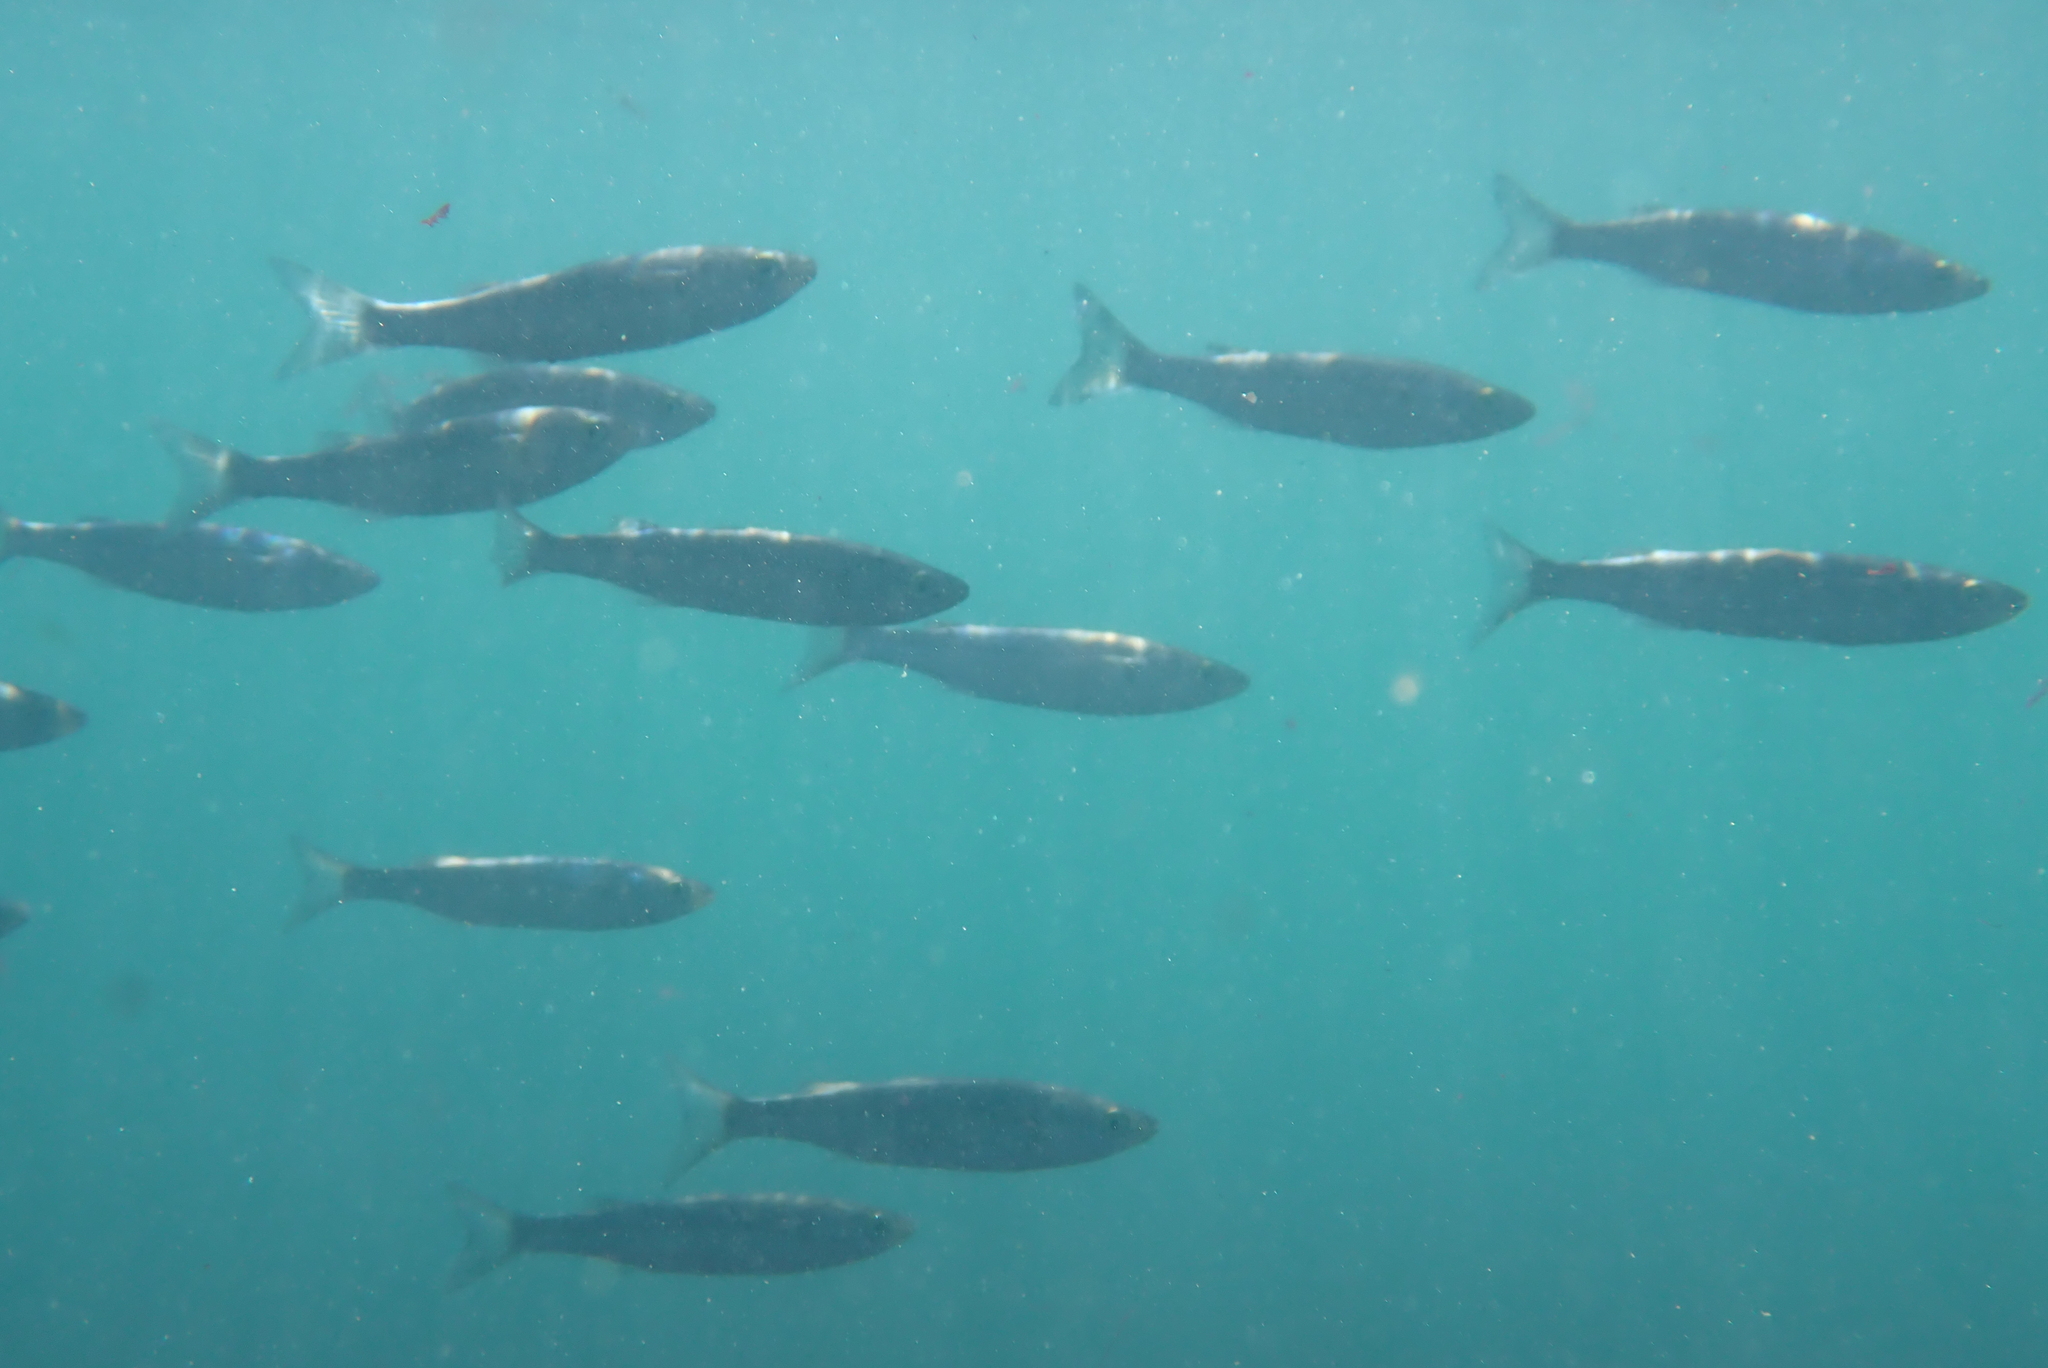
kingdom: Animalia
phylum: Chordata
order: Mugiliformes
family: Mugilidae
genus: Aldrichetta
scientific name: Aldrichetta forsteri
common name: Yellow-eye mullet
